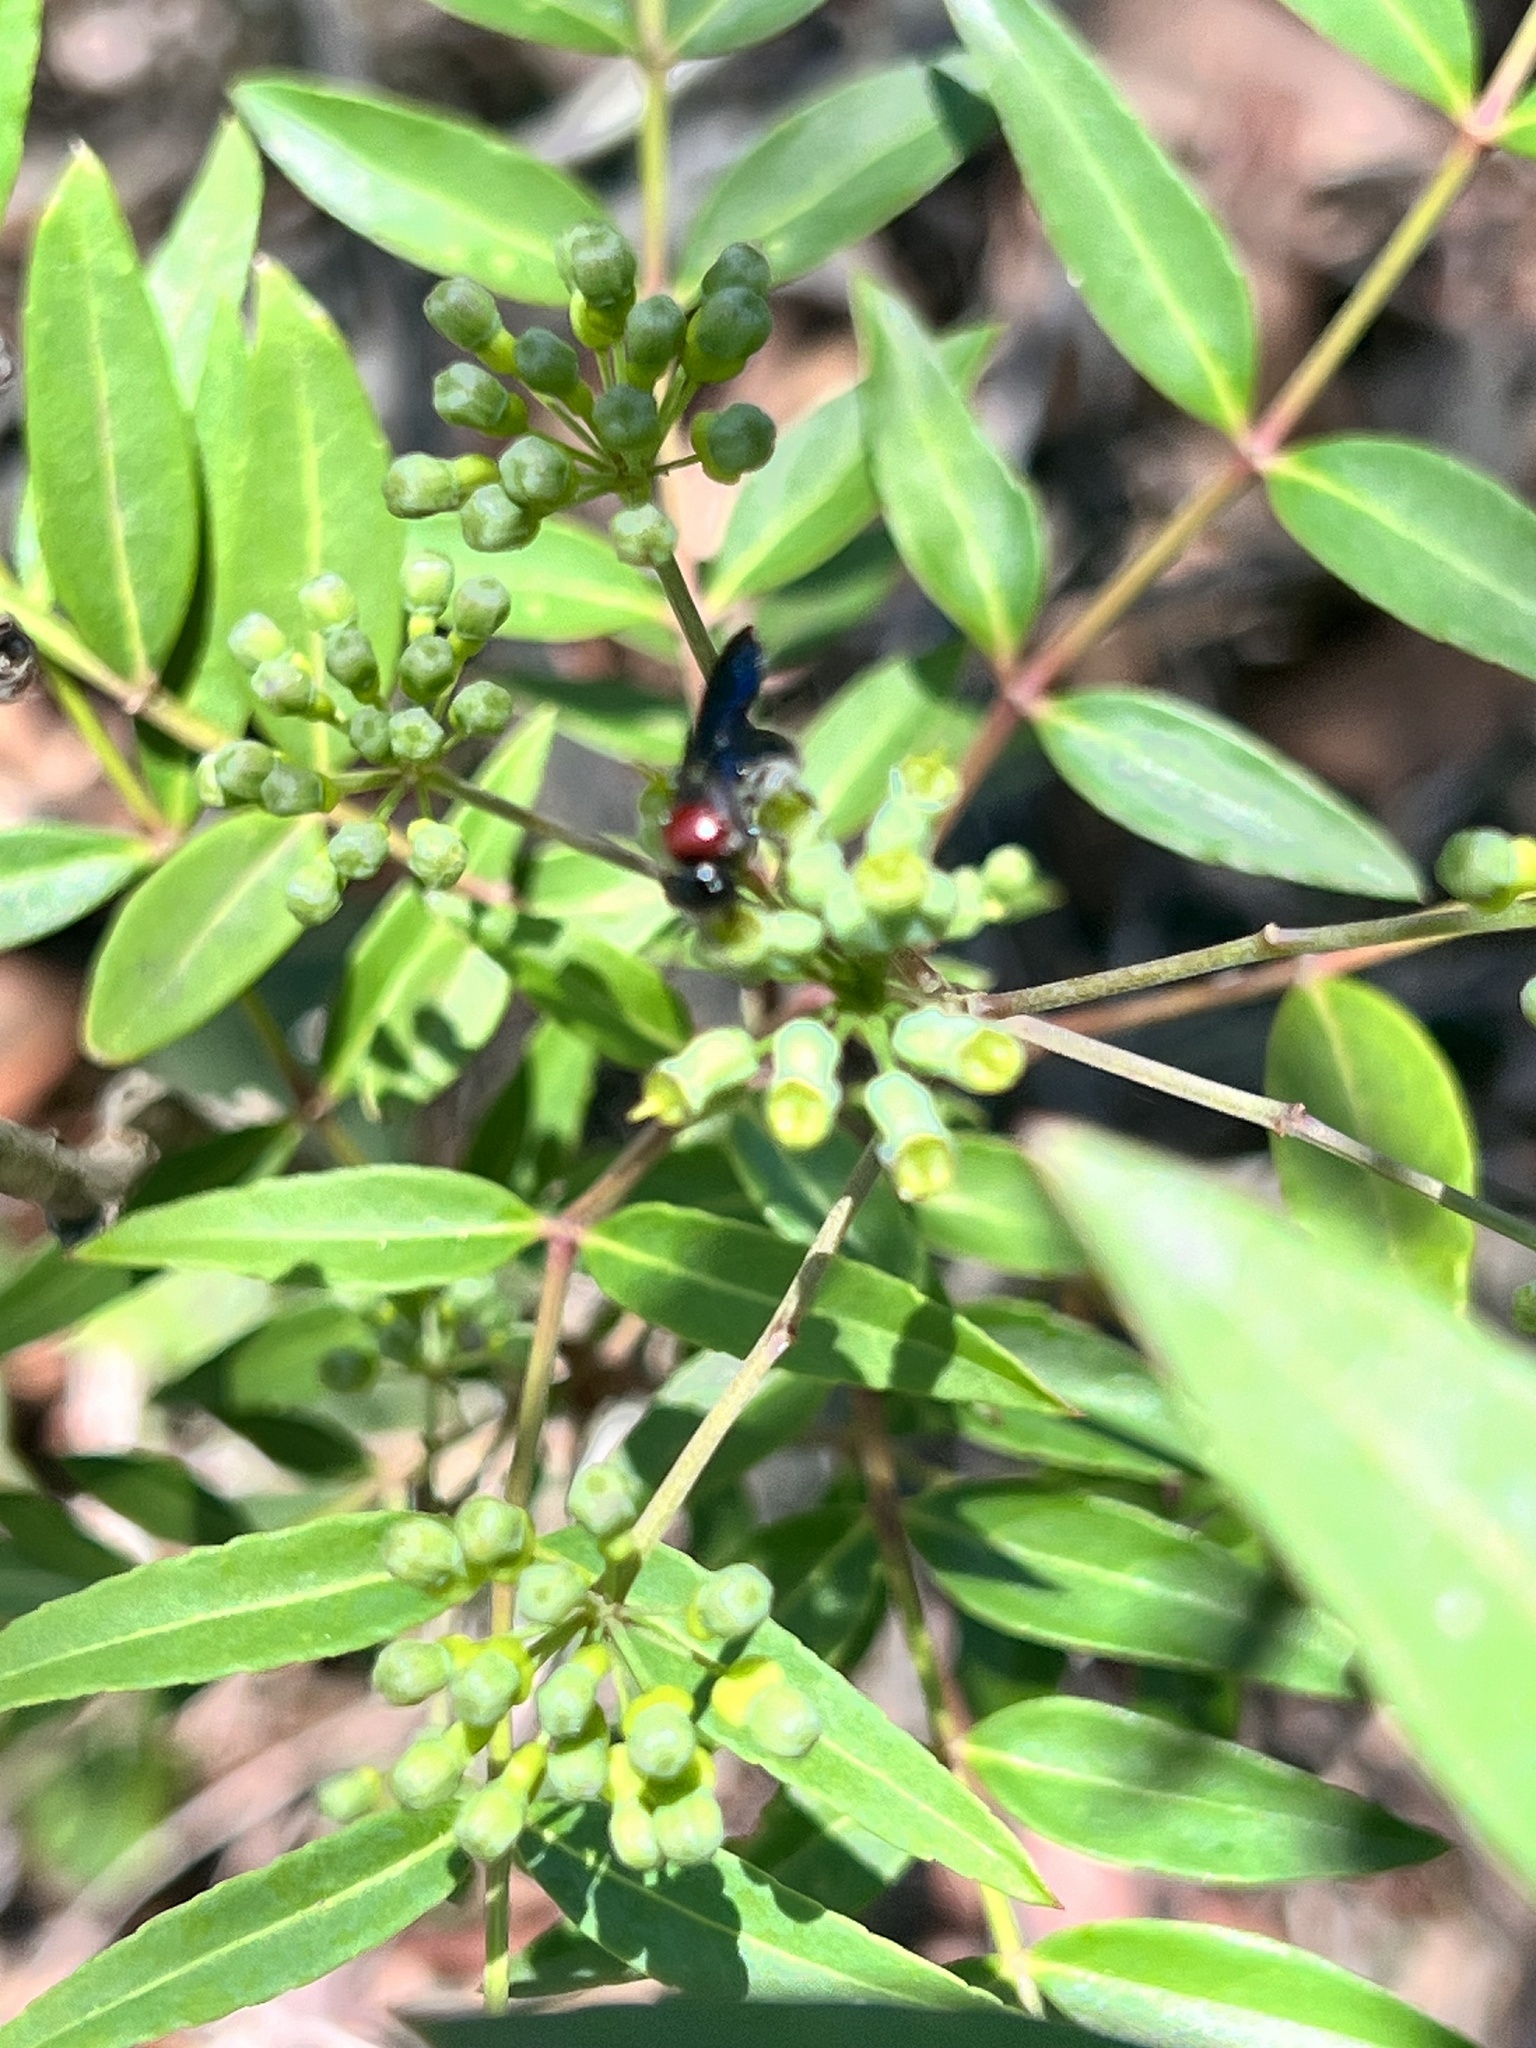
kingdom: Animalia
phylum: Arthropoda
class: Insecta
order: Hymenoptera
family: Colletidae
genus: Callomelitta
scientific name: Callomelitta picta
